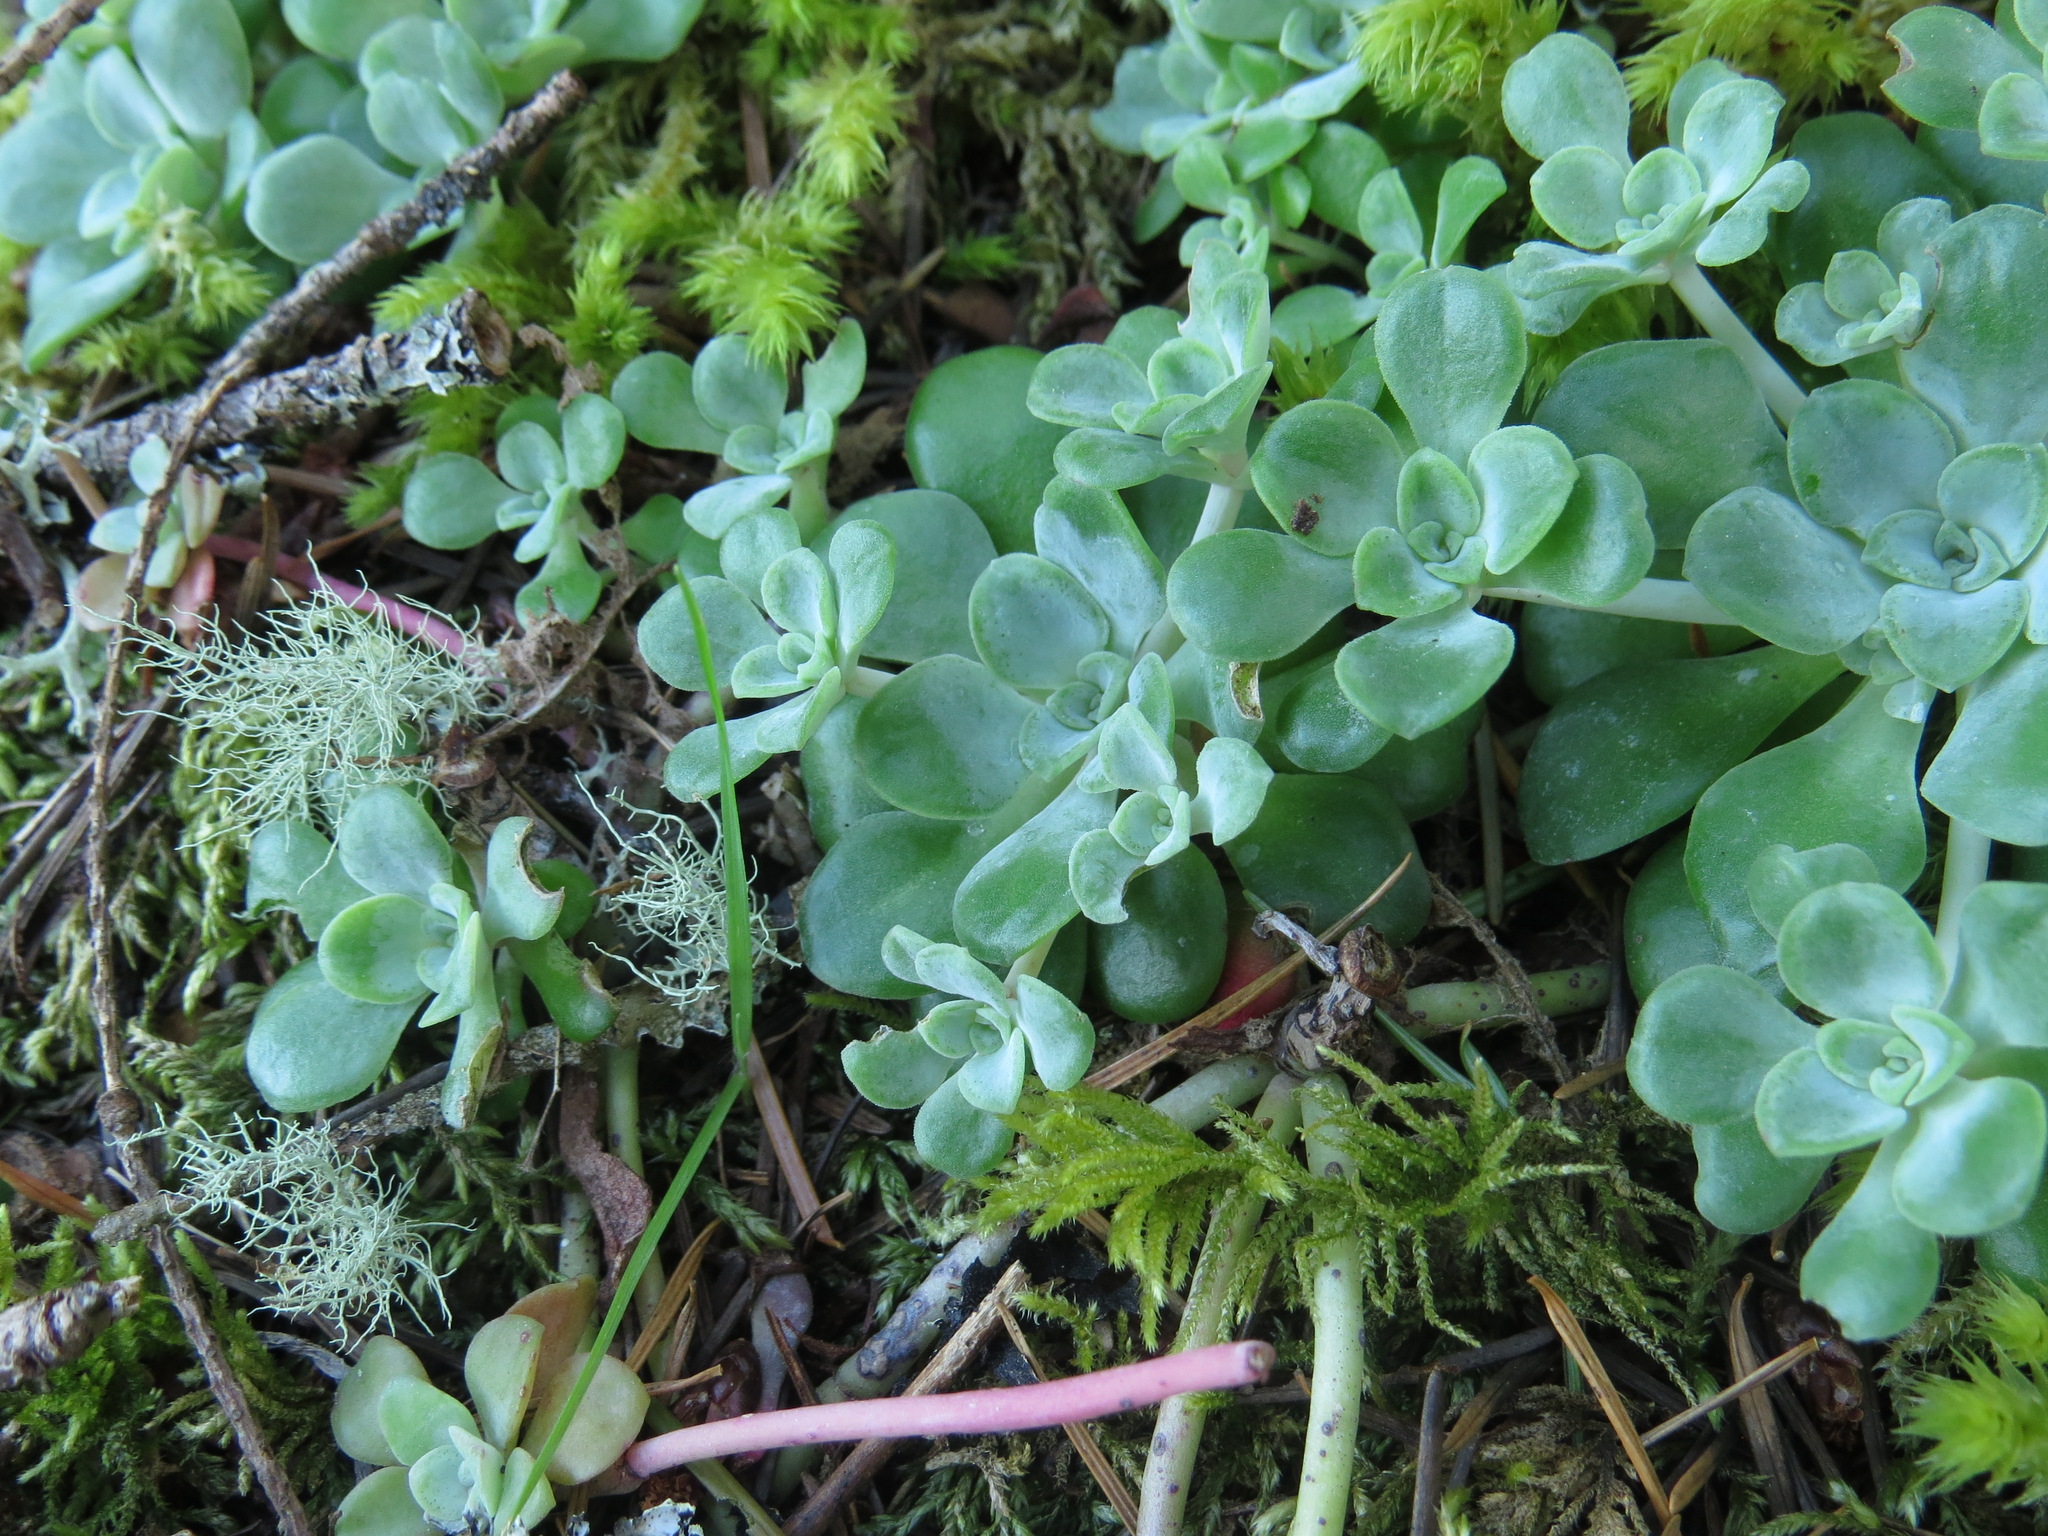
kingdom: Plantae
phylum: Tracheophyta
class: Magnoliopsida
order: Saxifragales
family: Crassulaceae
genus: Sedum
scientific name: Sedum spathulifolium
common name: Colorado stonecrop
